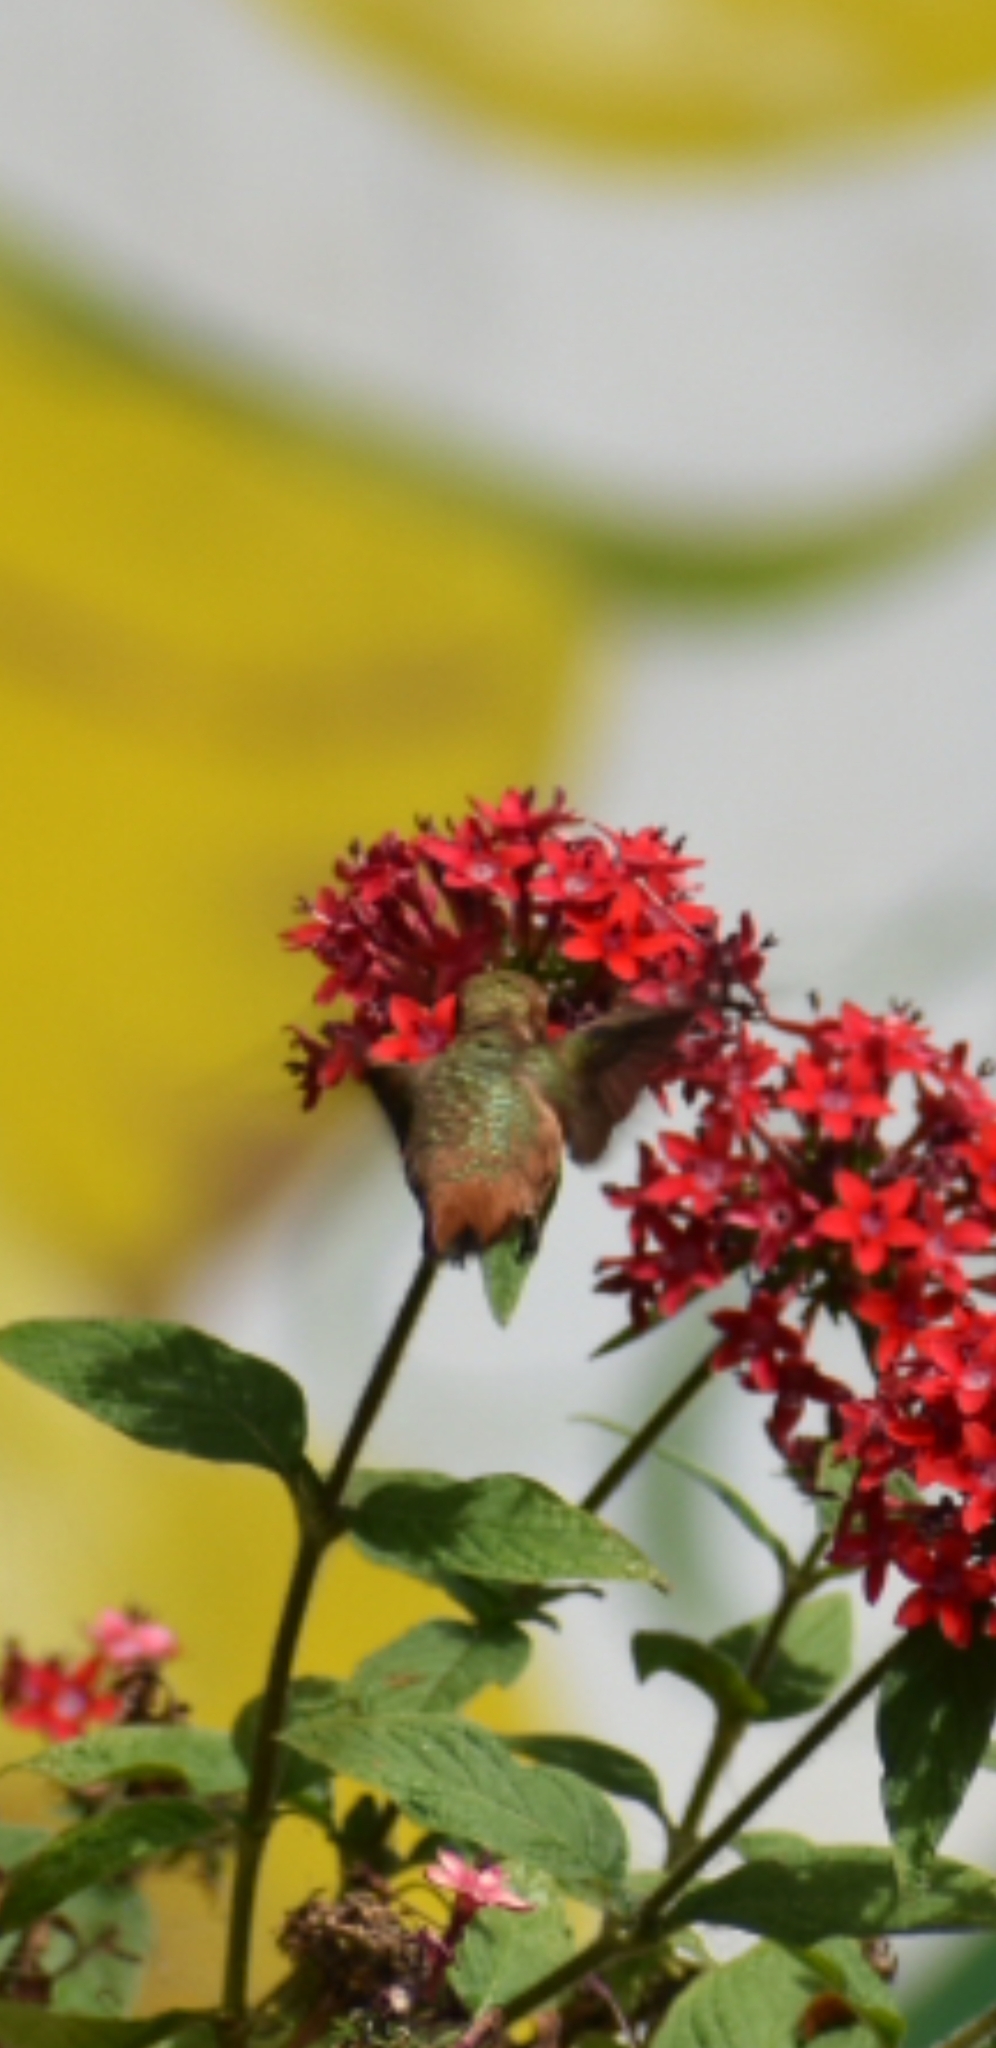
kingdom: Animalia
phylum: Chordata
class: Aves
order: Apodiformes
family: Trochilidae
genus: Selasphorus
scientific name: Selasphorus
